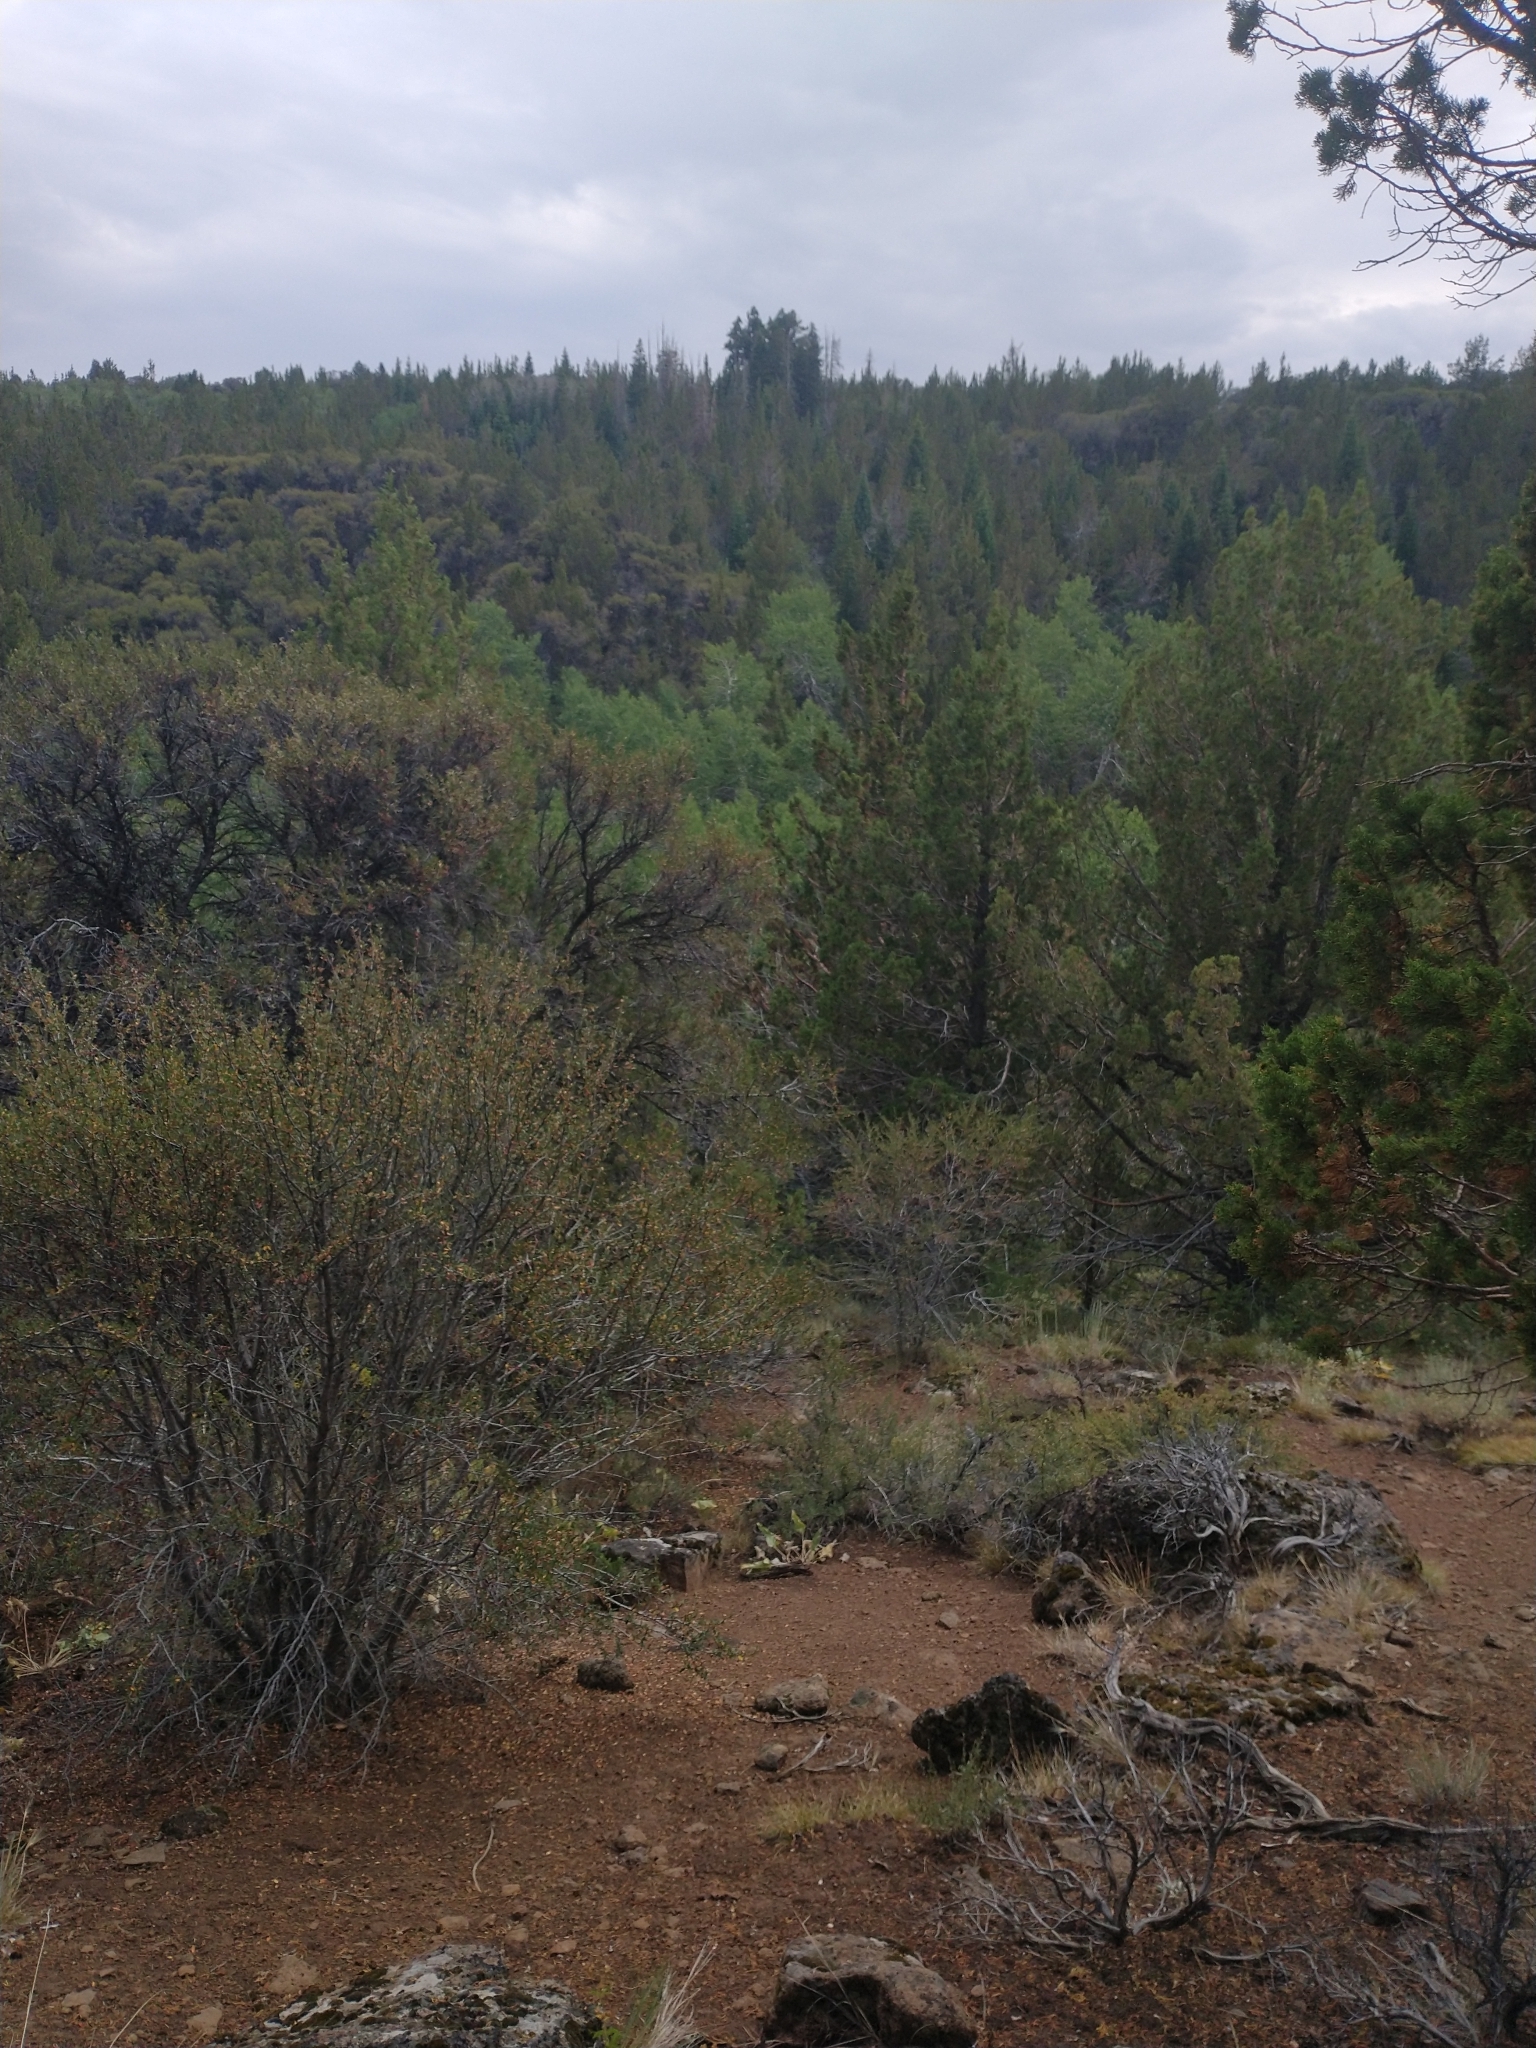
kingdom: Plantae
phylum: Tracheophyta
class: Magnoliopsida
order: Rosales
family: Rosaceae
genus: Cercocarpus
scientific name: Cercocarpus ledifolius
